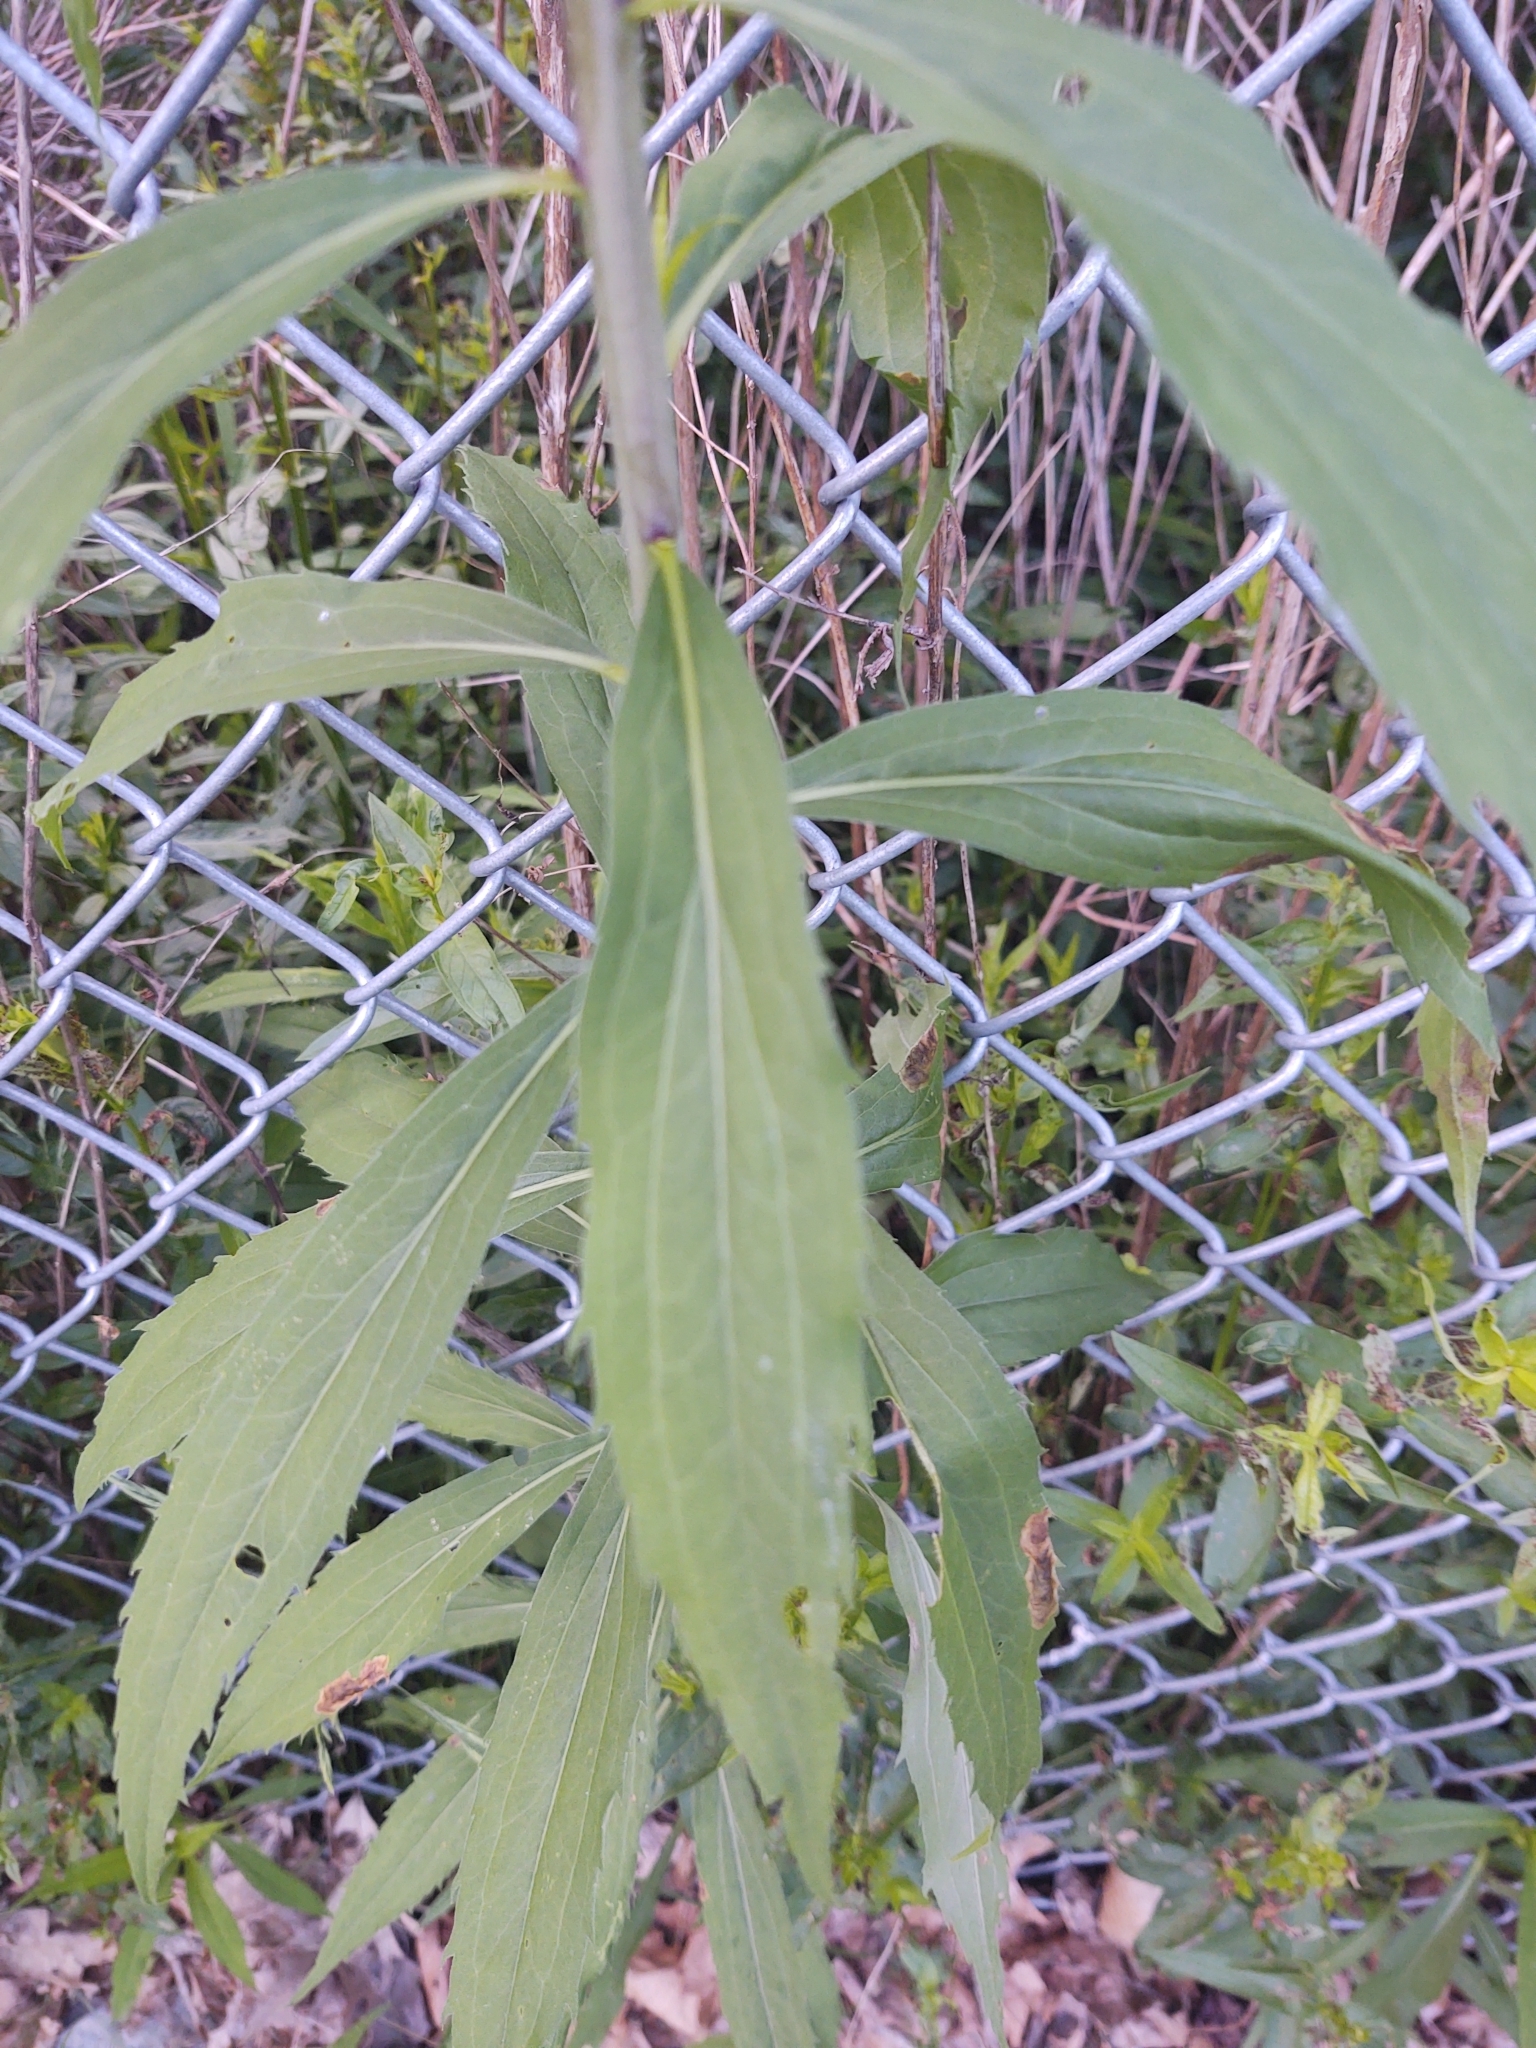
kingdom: Plantae
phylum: Tracheophyta
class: Magnoliopsida
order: Asterales
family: Asteraceae
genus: Solidago
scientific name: Solidago gigantea
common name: Giant goldenrod
